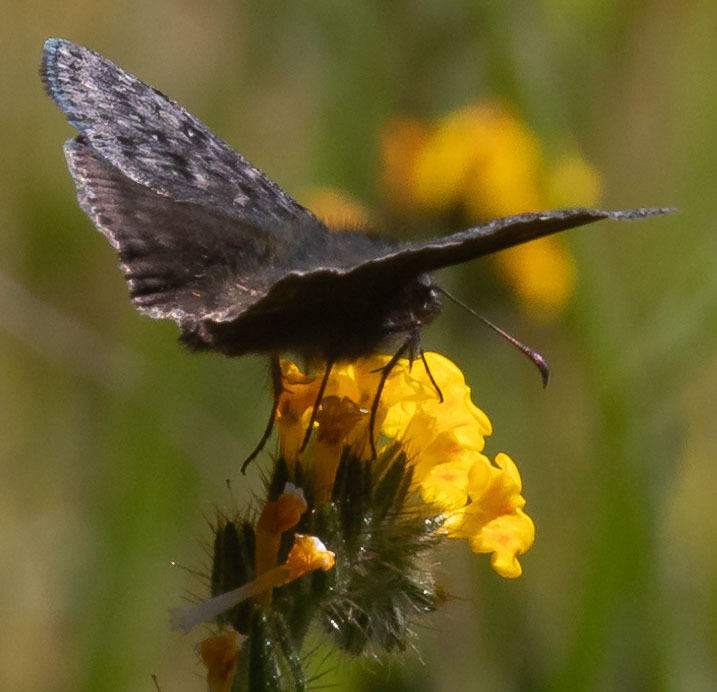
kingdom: Animalia
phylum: Arthropoda
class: Insecta
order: Lepidoptera
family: Hesperiidae
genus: Erynnis
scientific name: Erynnis propertius
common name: Propertius duskywing
